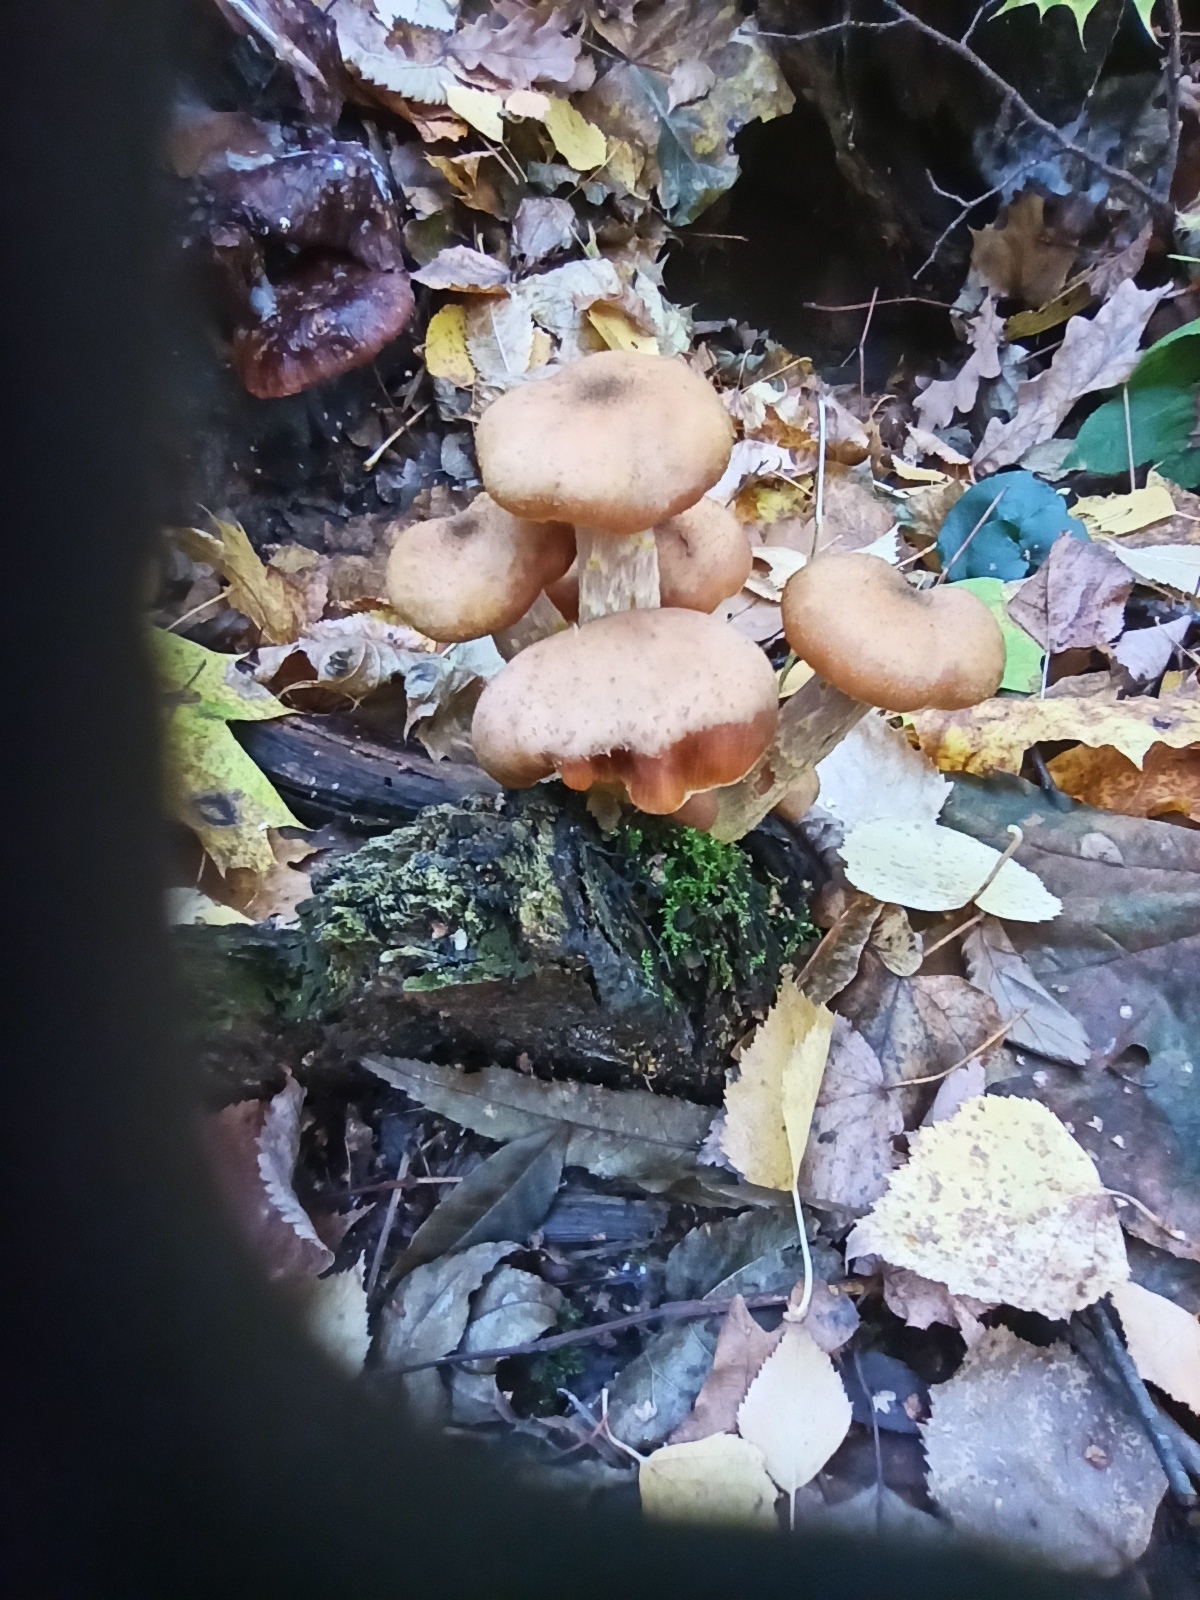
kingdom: Fungi
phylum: Basidiomycota
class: Agaricomycetes
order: Agaricales
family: Physalacriaceae
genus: Armillaria
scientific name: Armillaria gallica
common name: Bulbous honey fungus
